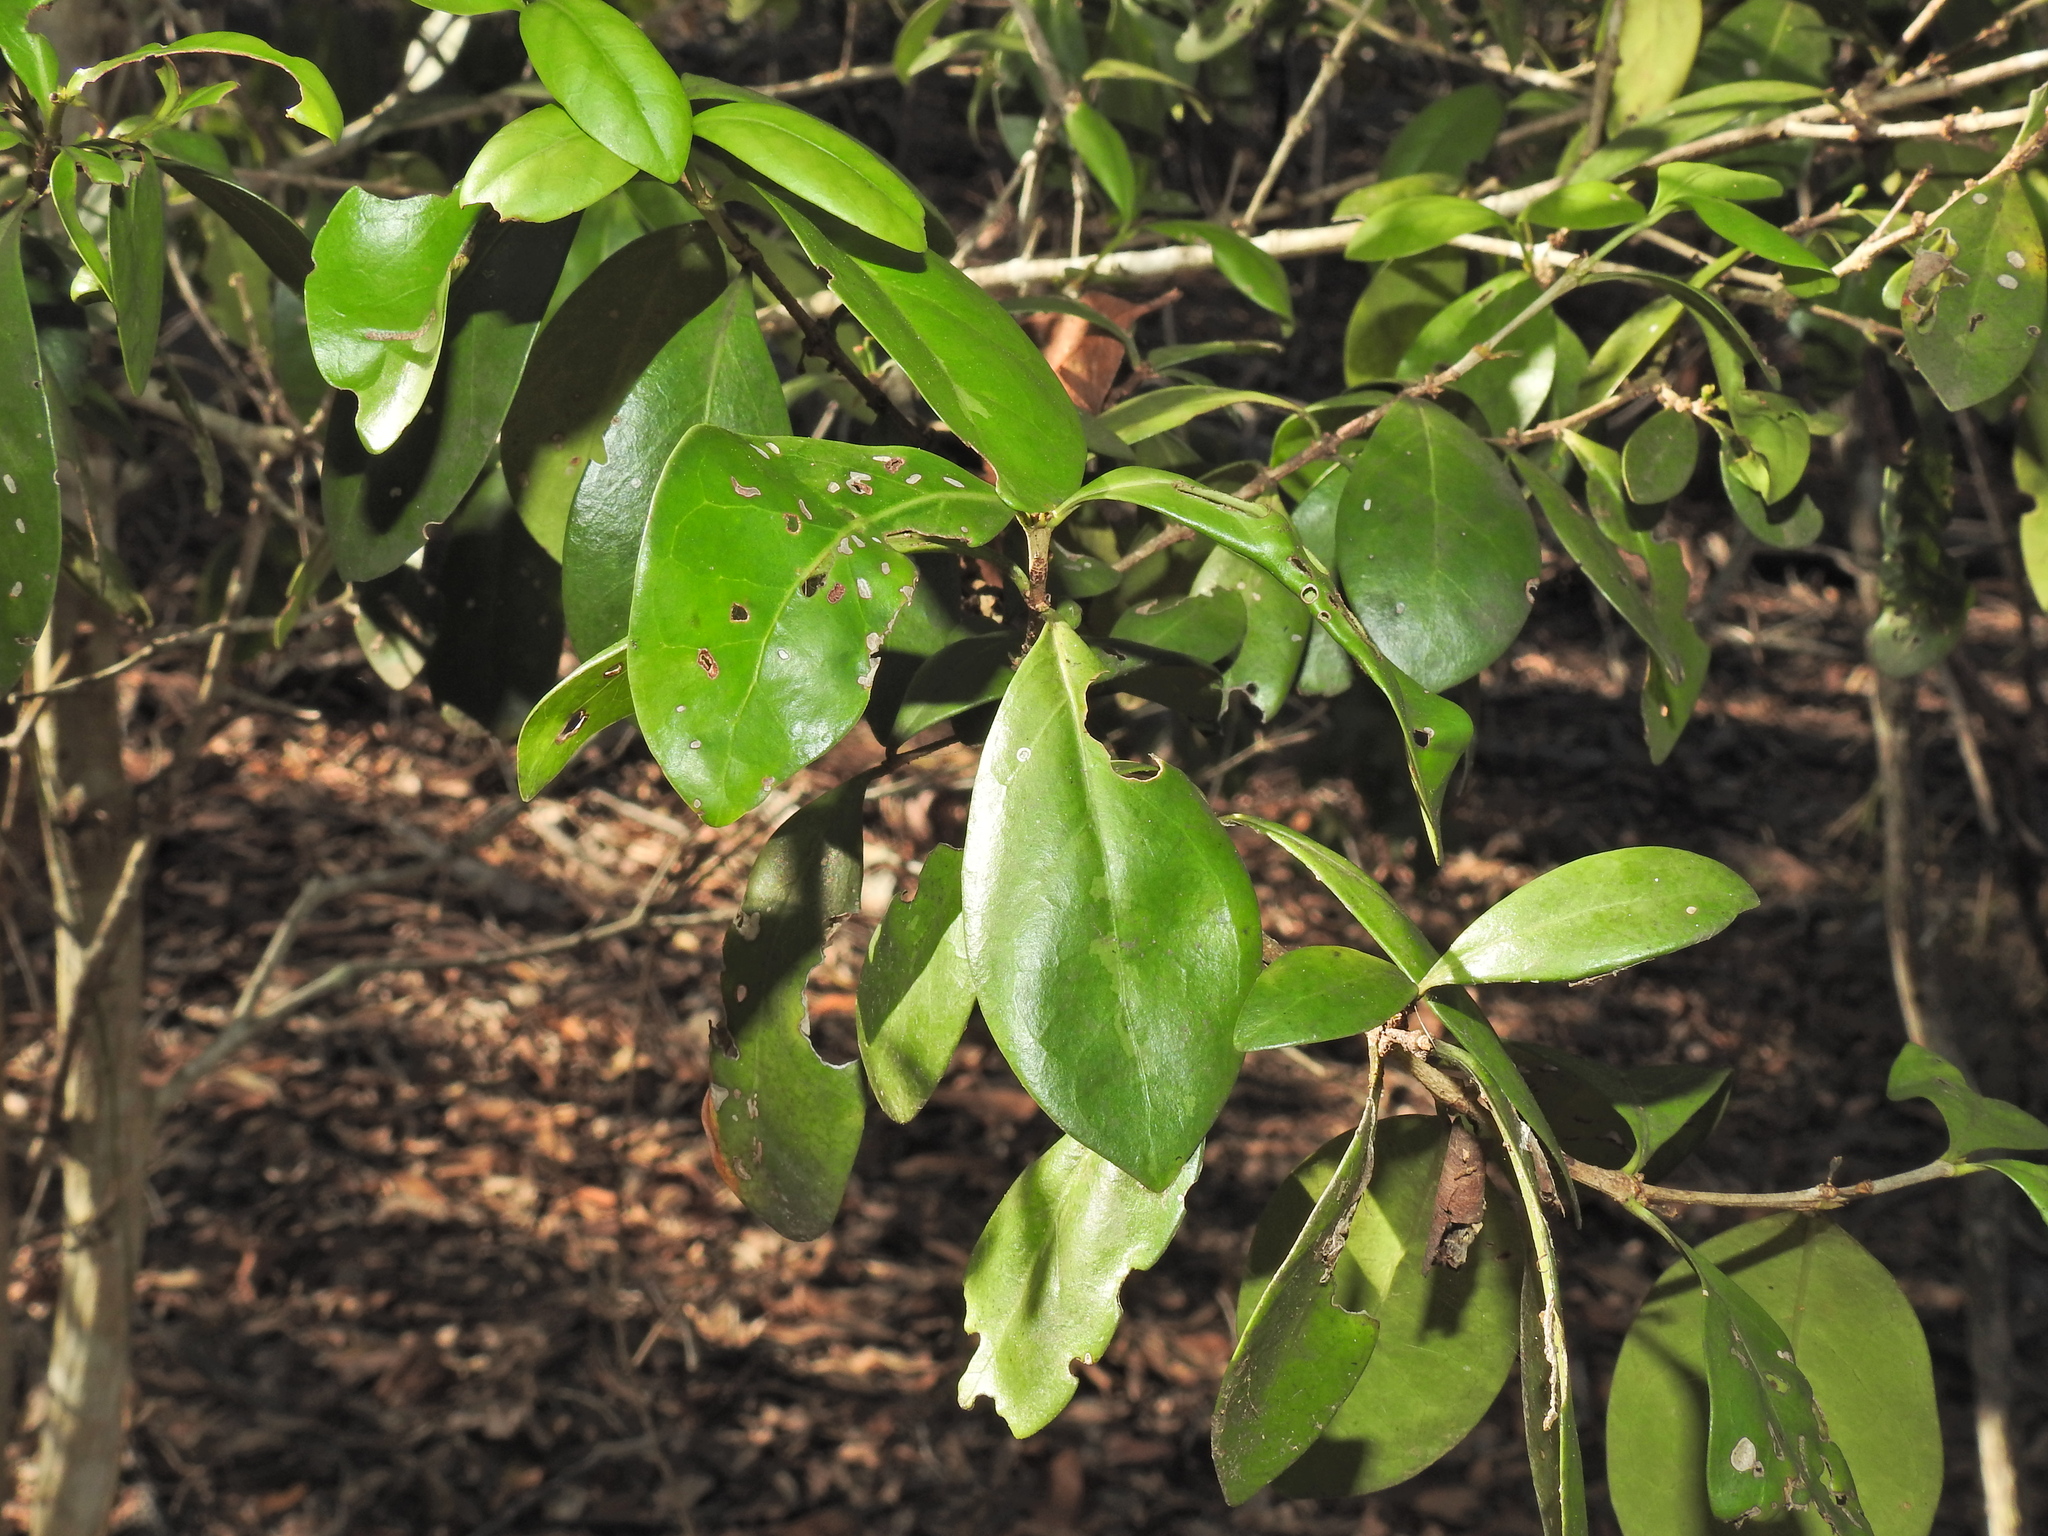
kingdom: Plantae
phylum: Tracheophyta
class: Magnoliopsida
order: Gentianales
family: Rubiaceae
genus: Cyclophyllum
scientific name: Cyclophyllum coprosmoides
